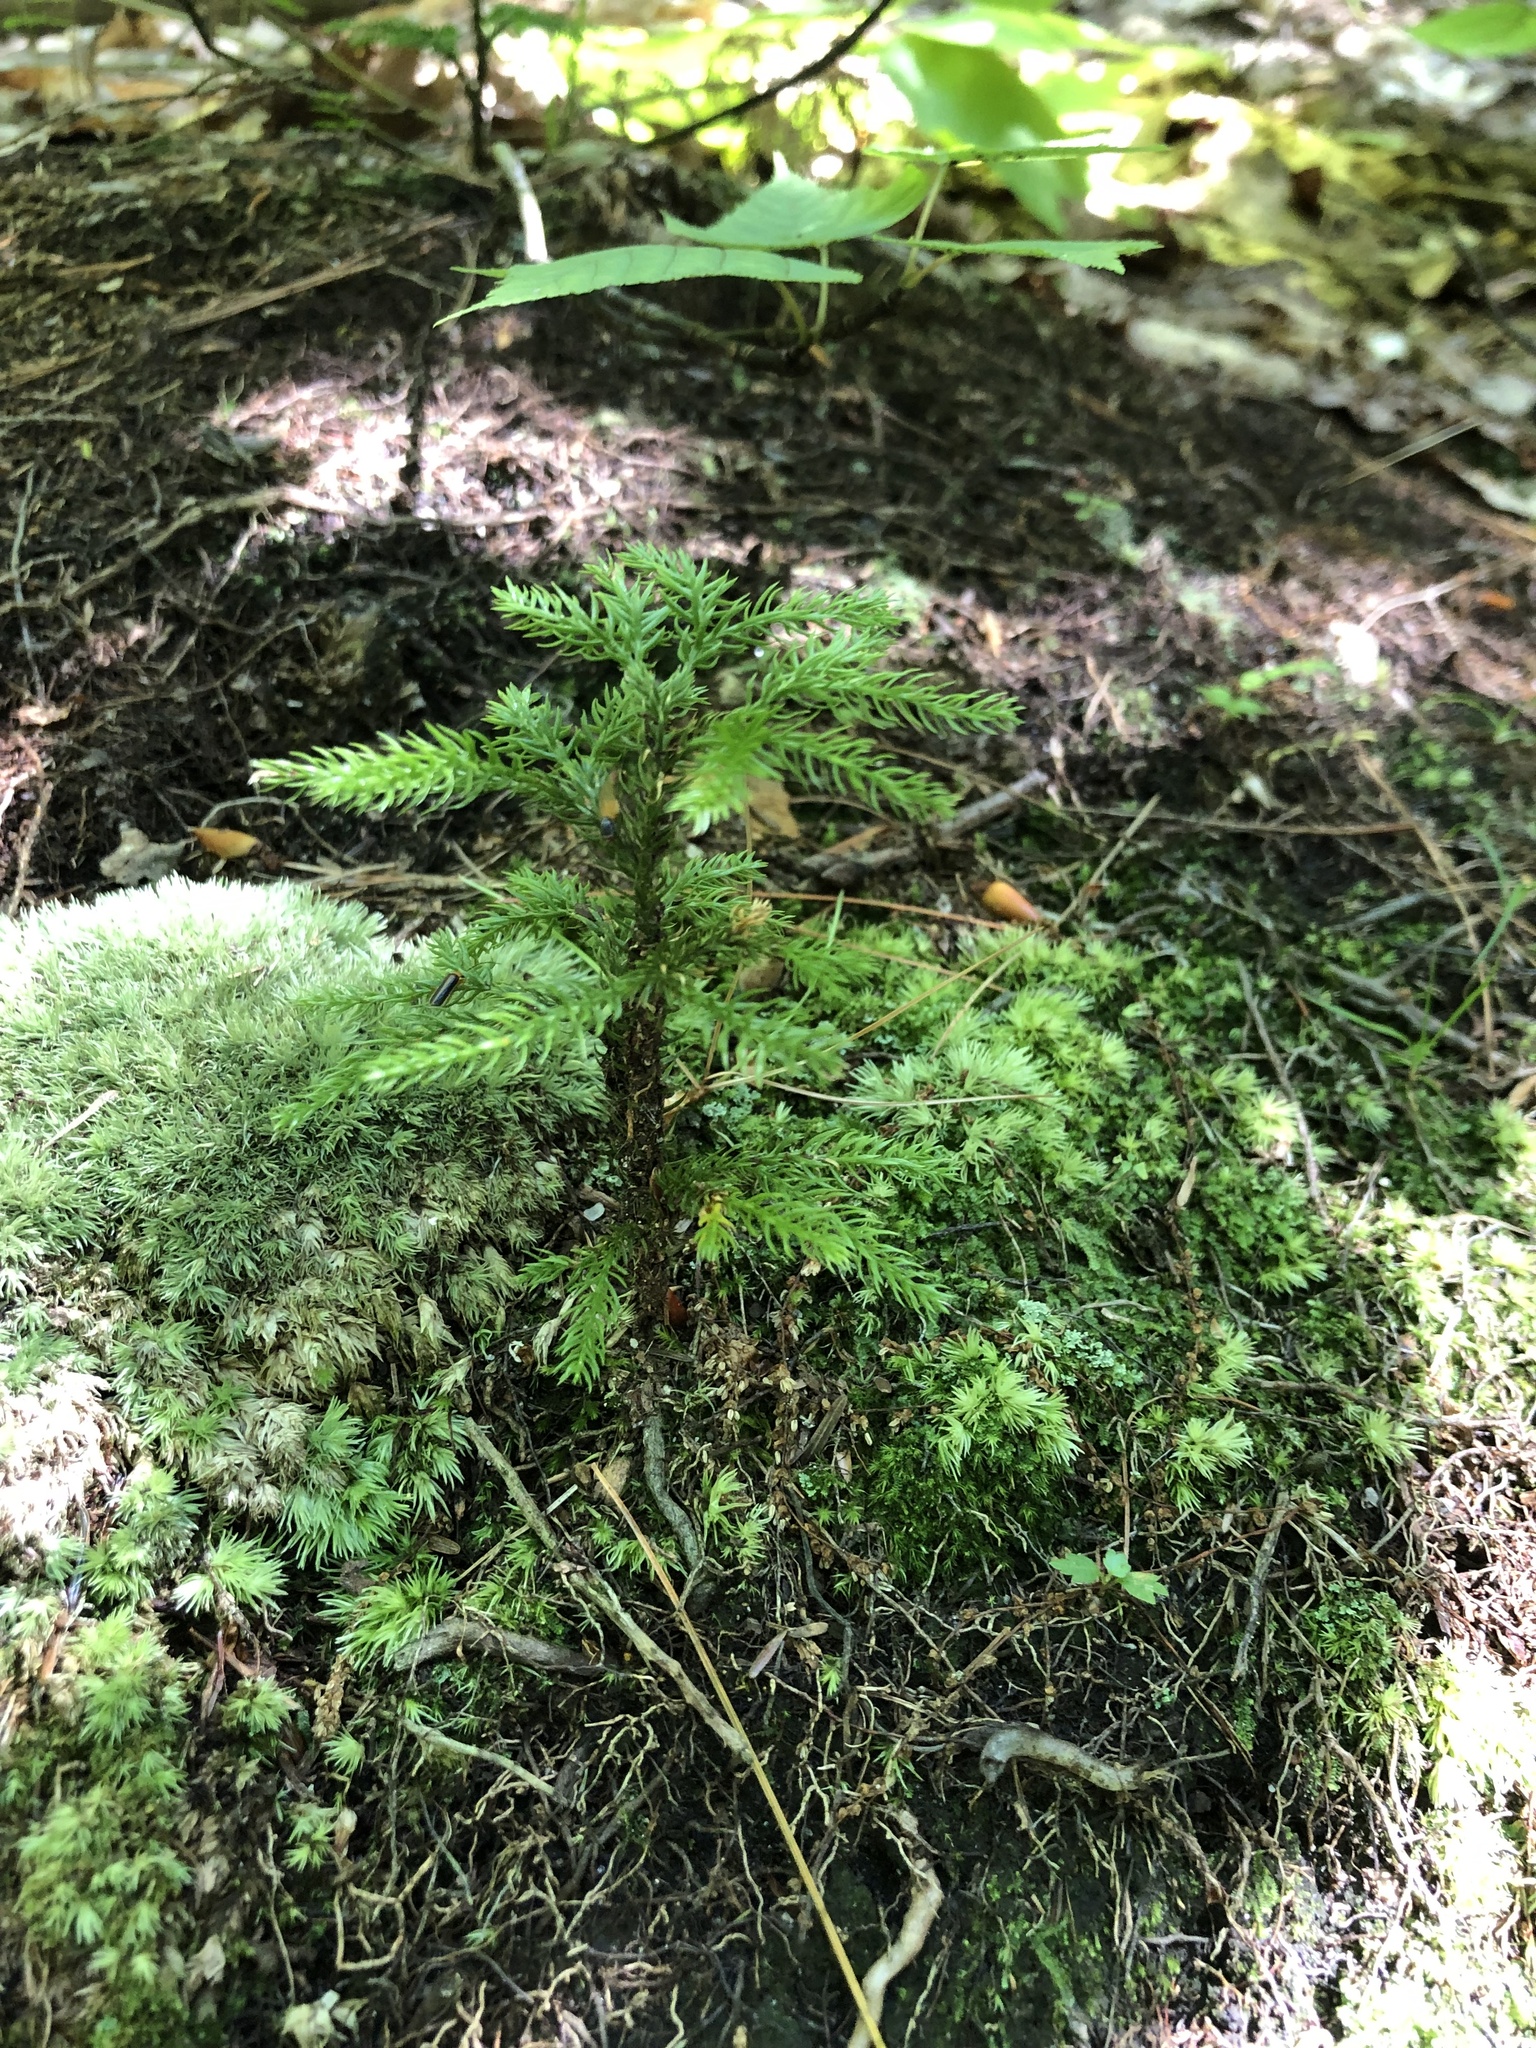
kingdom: Plantae
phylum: Tracheophyta
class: Lycopodiopsida
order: Lycopodiales
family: Lycopodiaceae
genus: Dendrolycopodium
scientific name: Dendrolycopodium dendroideum
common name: Northern tree-clubmoss
